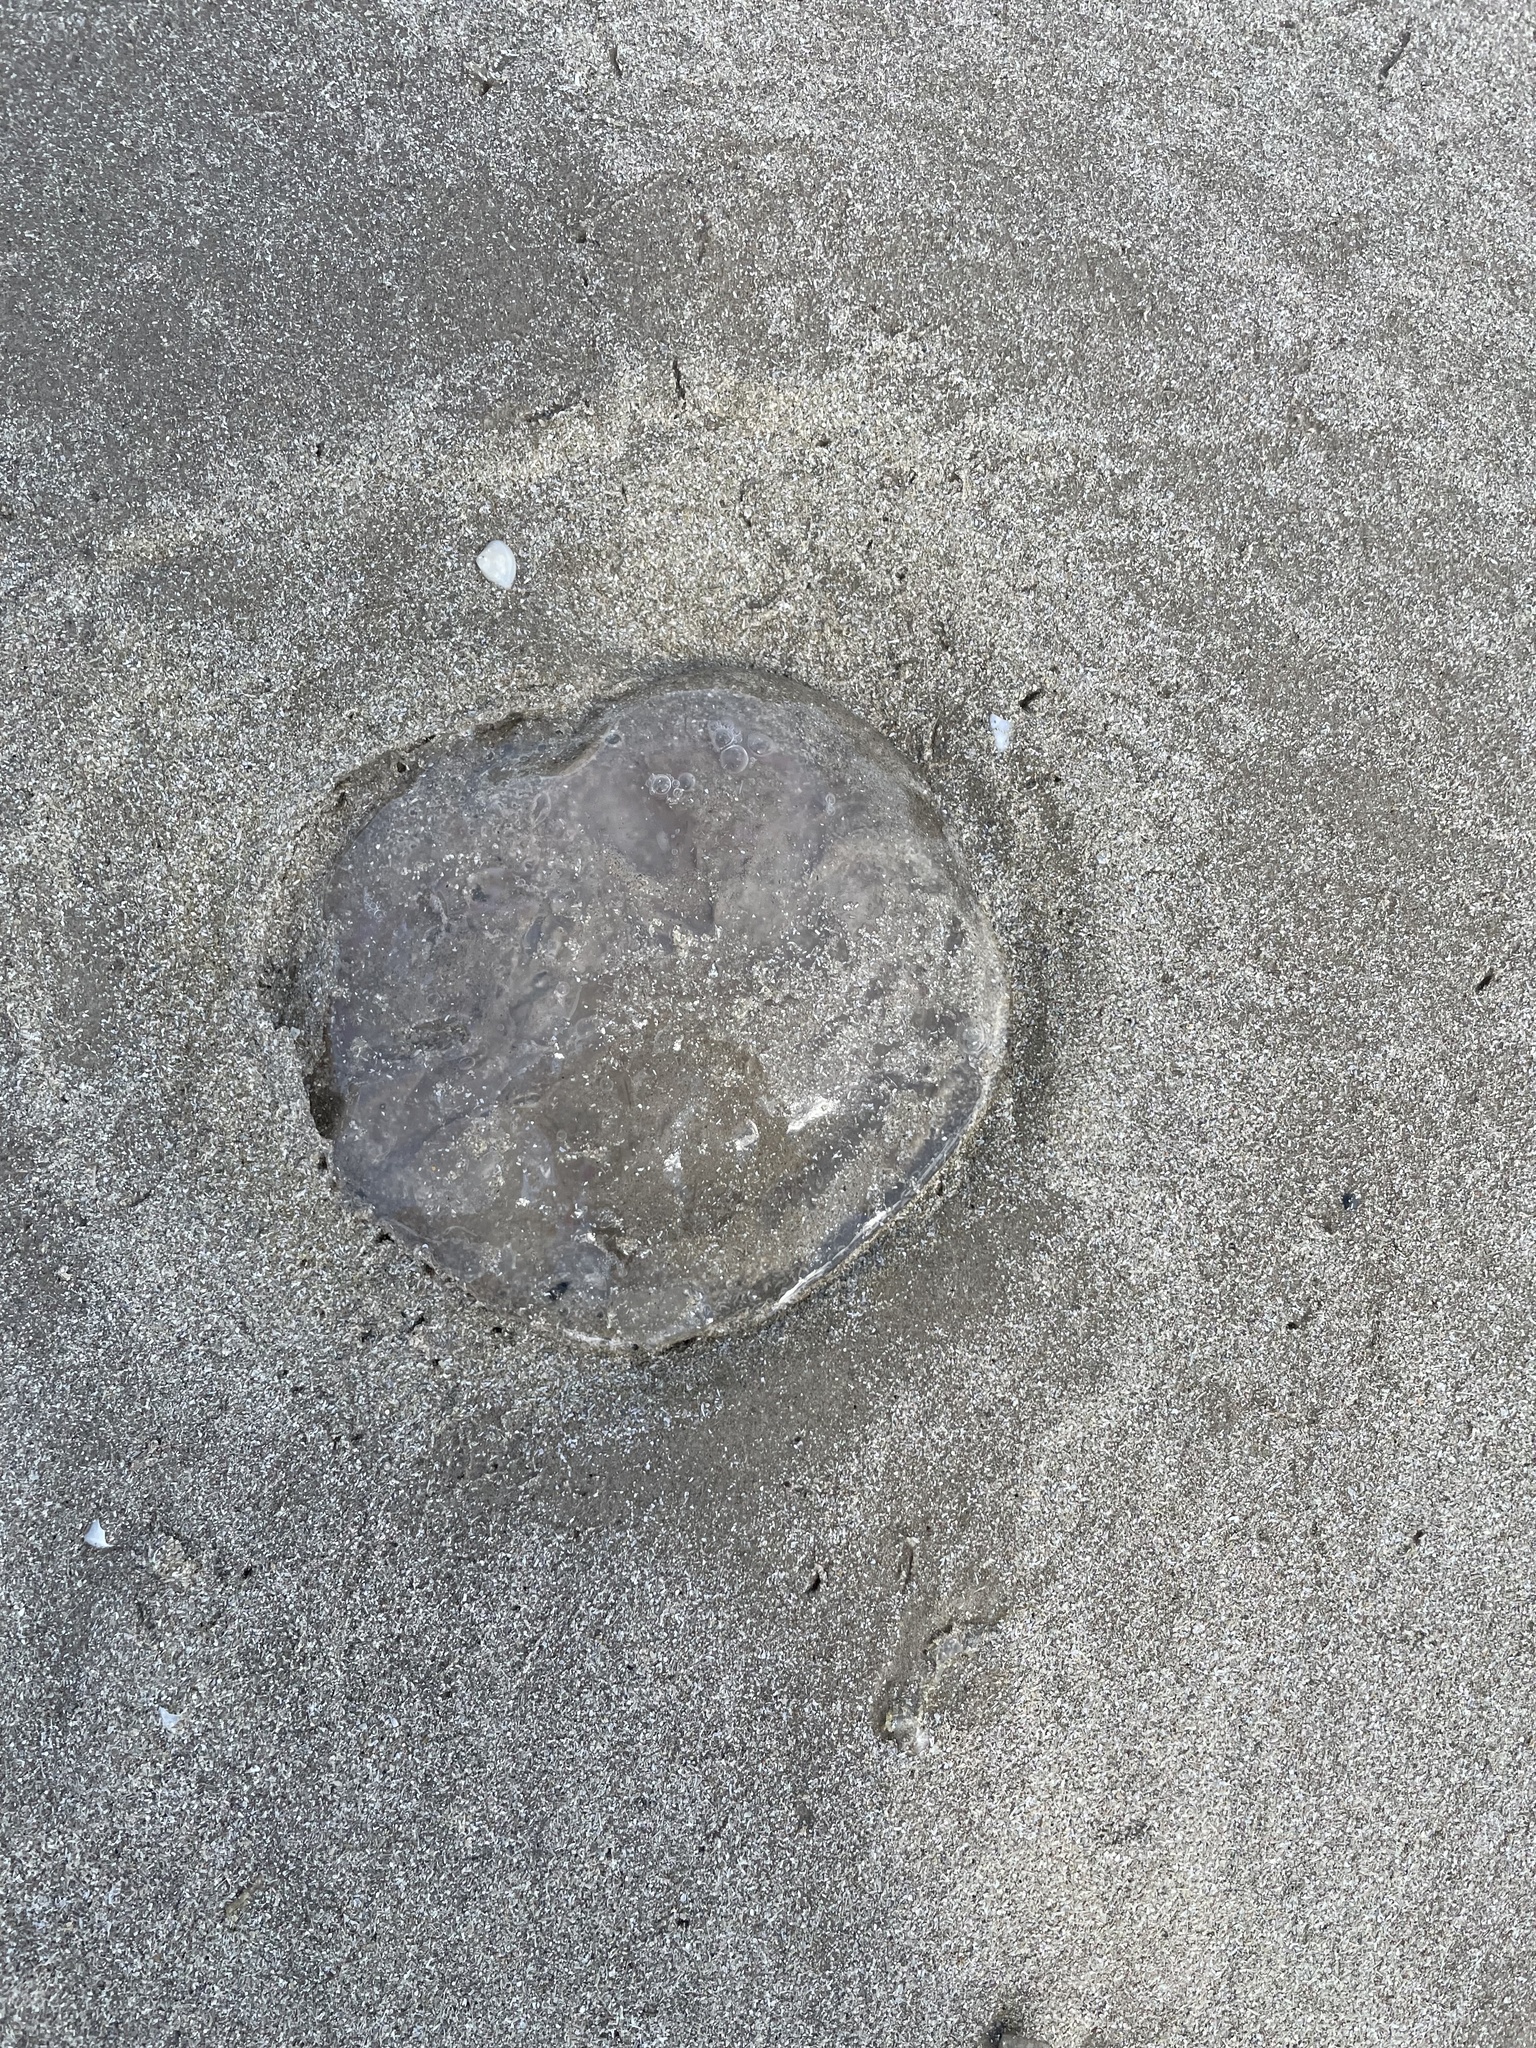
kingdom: Animalia
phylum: Cnidaria
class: Scyphozoa
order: Semaeostomeae
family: Ulmaridae
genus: Aurelia
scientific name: Aurelia marginalis
